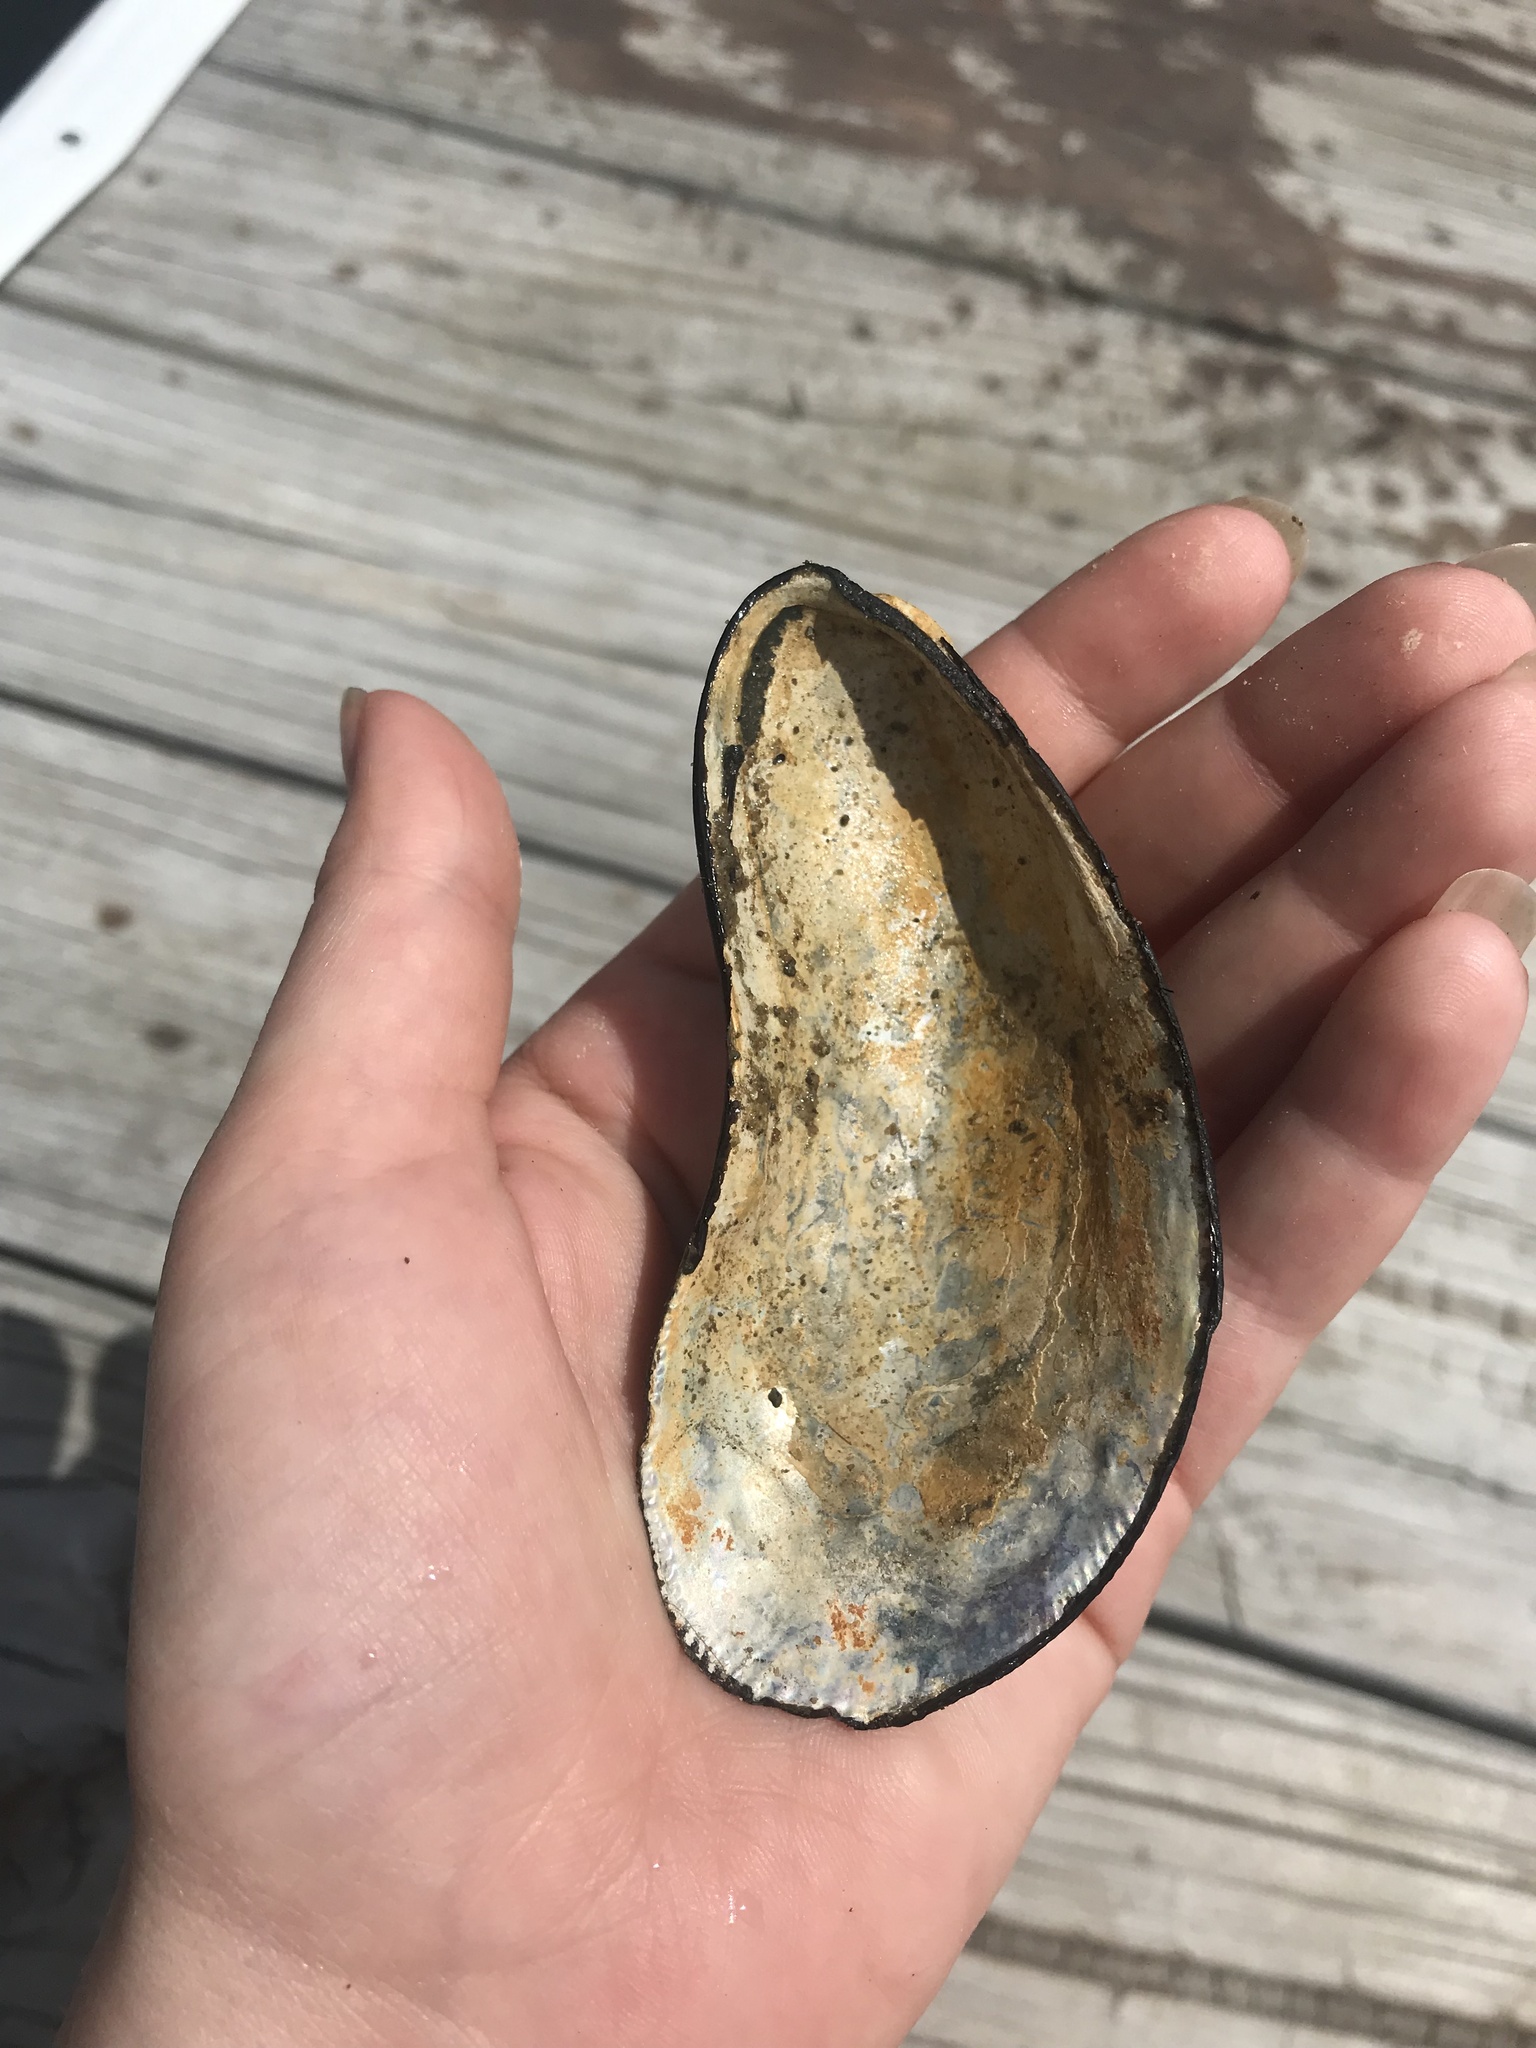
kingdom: Animalia
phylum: Mollusca
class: Bivalvia
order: Mytilida
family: Mytilidae
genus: Geukensia
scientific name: Geukensia demissa
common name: Ribbed mussel
